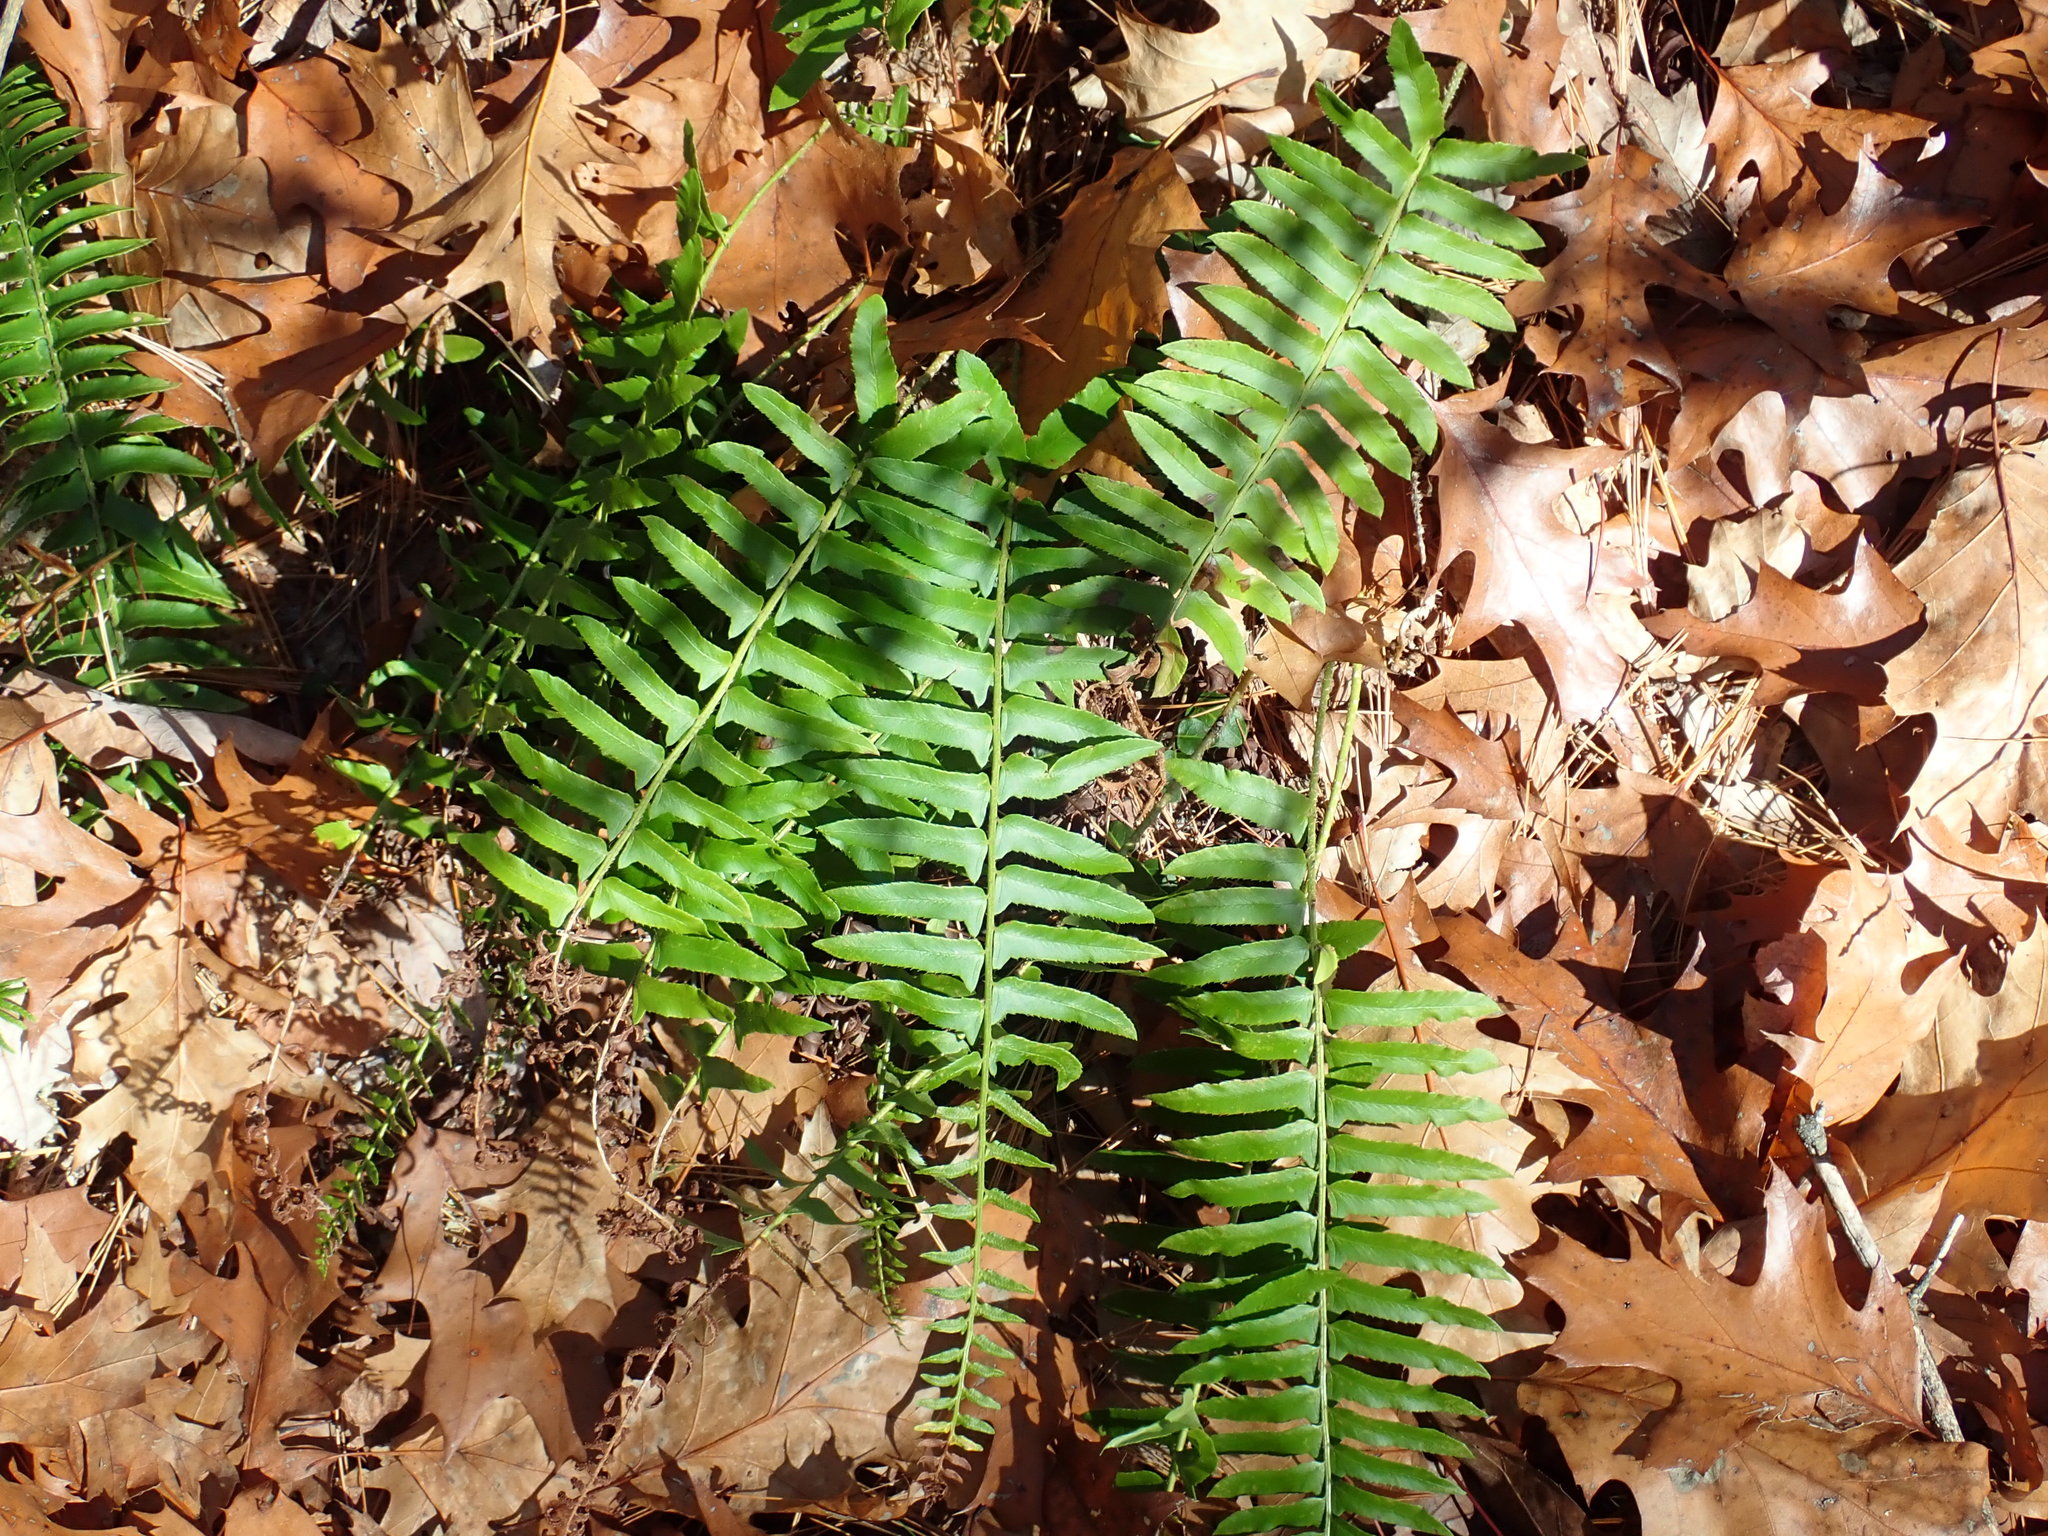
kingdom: Plantae
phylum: Tracheophyta
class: Polypodiopsida
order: Polypodiales
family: Dryopteridaceae
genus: Polystichum
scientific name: Polystichum acrostichoides
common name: Christmas fern
